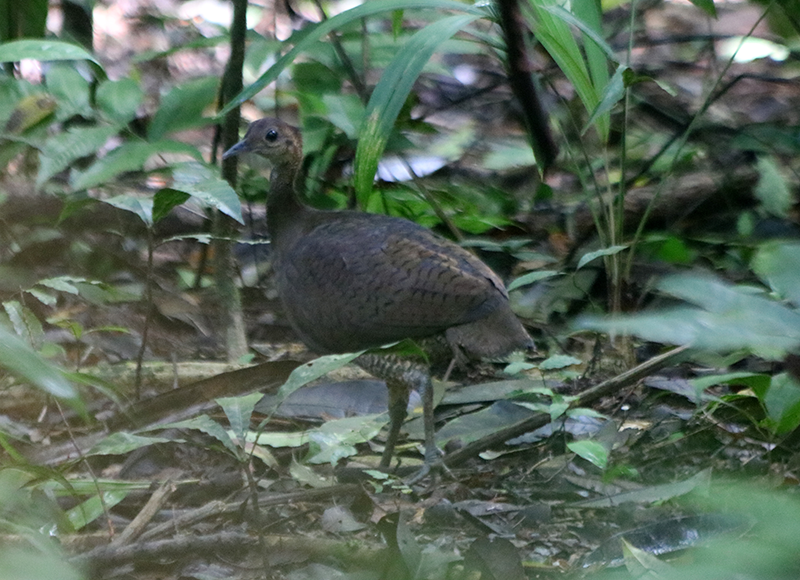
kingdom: Animalia
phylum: Chordata
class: Aves
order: Tinamiformes
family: Tinamidae
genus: Tinamus
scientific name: Tinamus major
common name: Great tinamou
